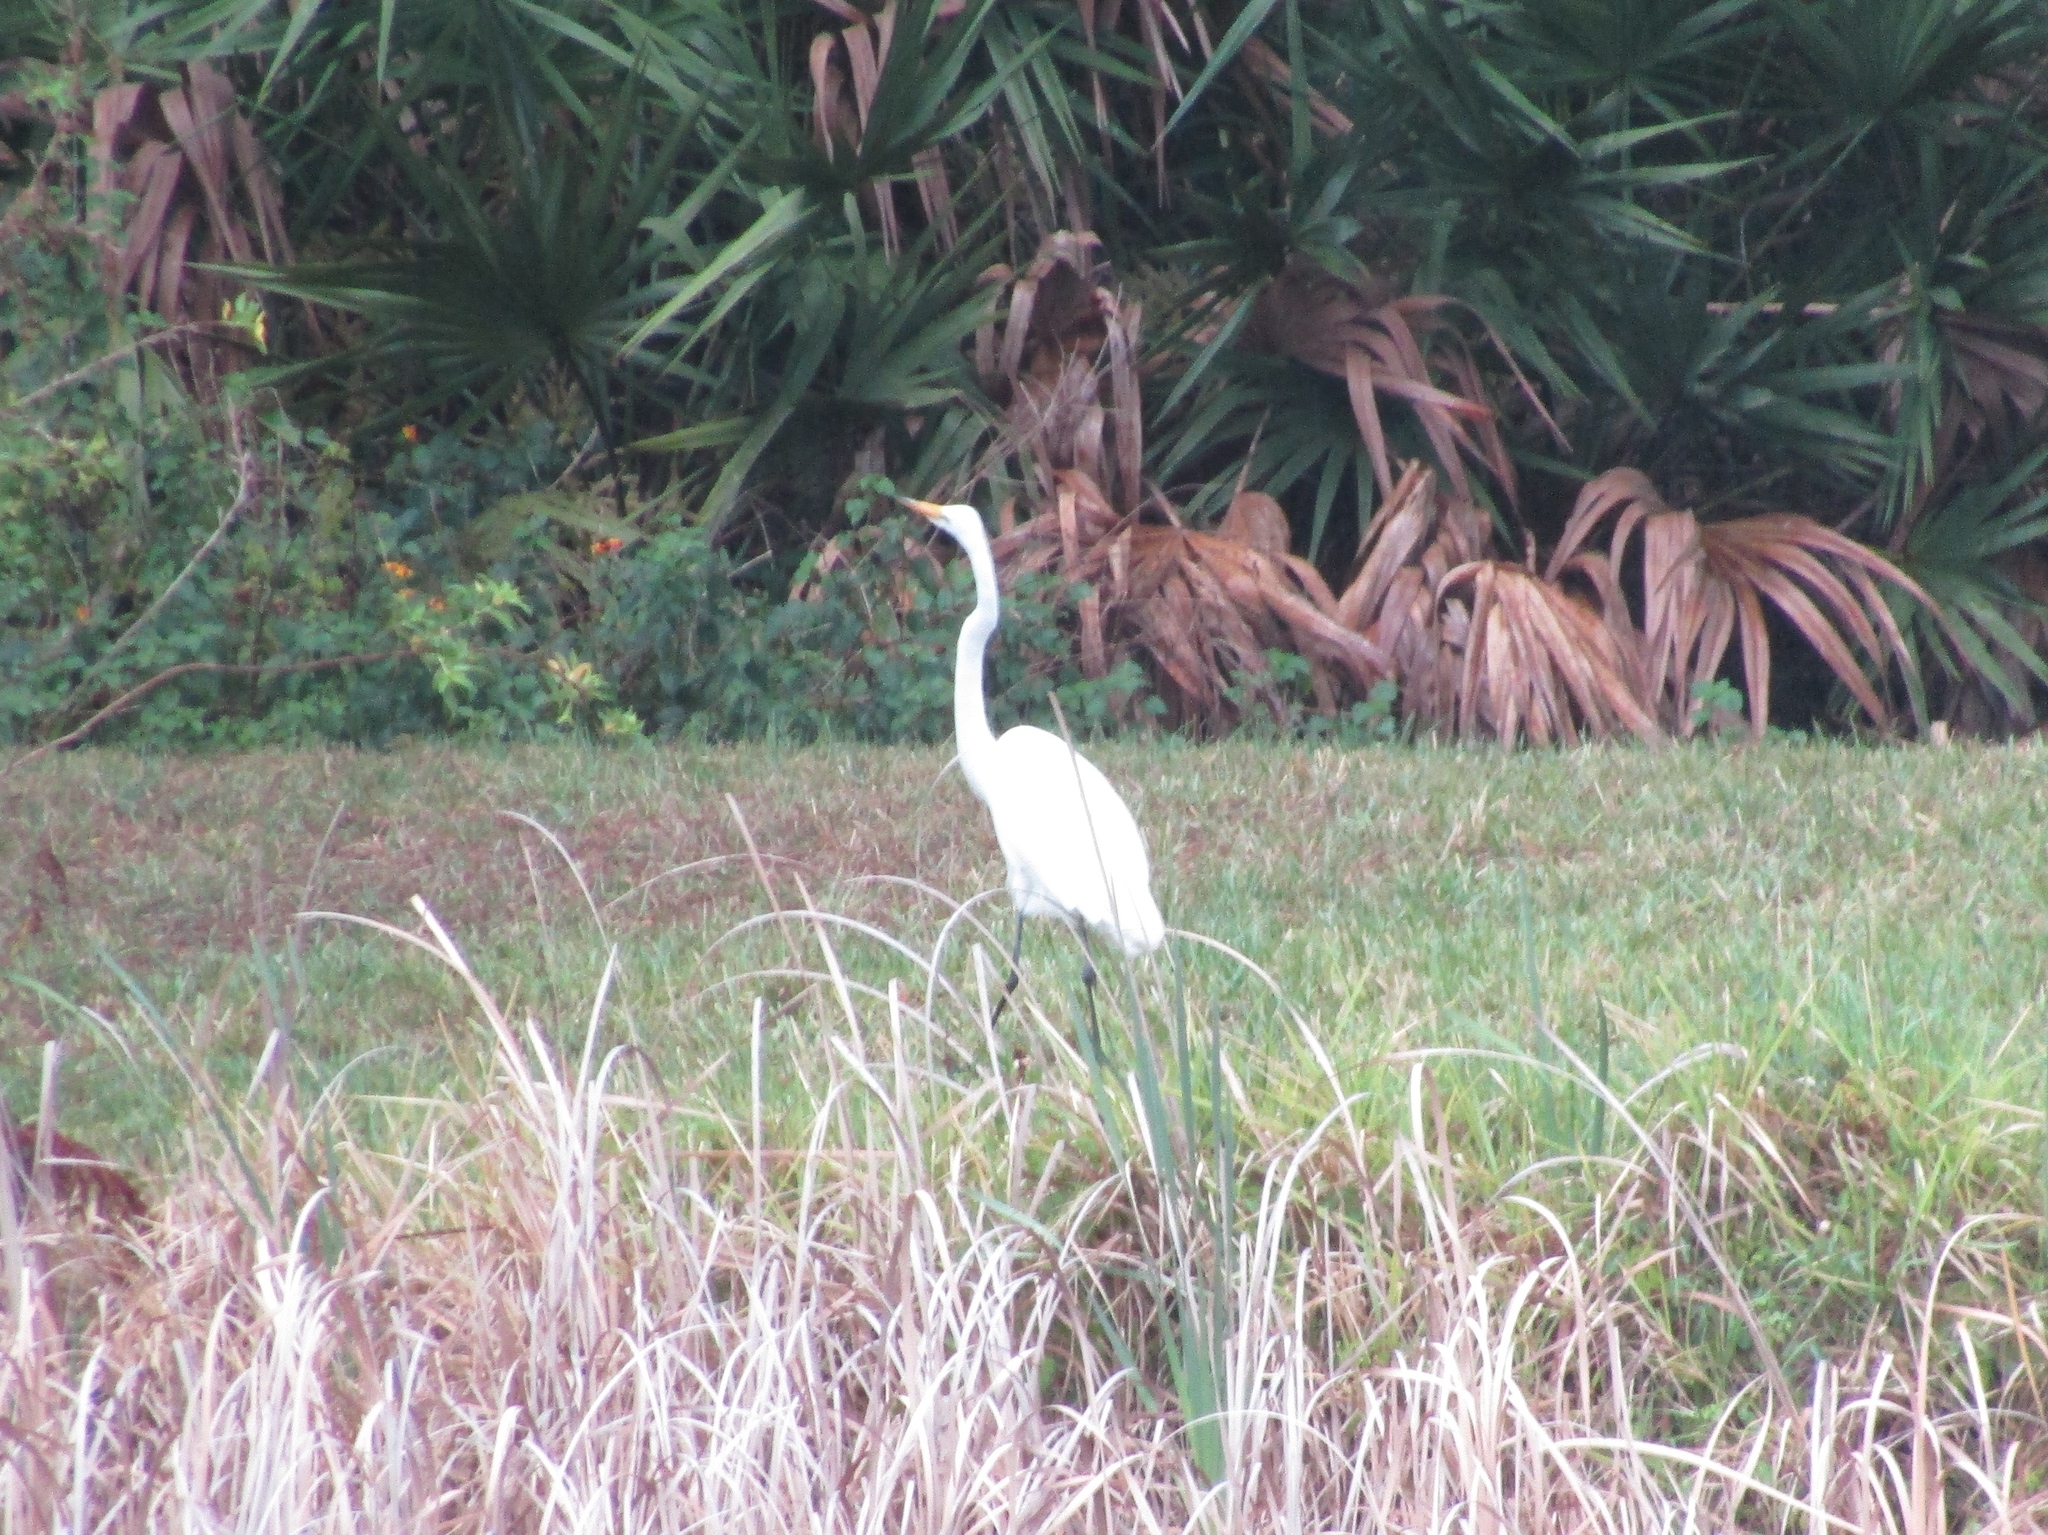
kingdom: Animalia
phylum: Chordata
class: Aves
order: Pelecaniformes
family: Ardeidae
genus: Ardea
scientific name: Ardea alba
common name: Great egret
